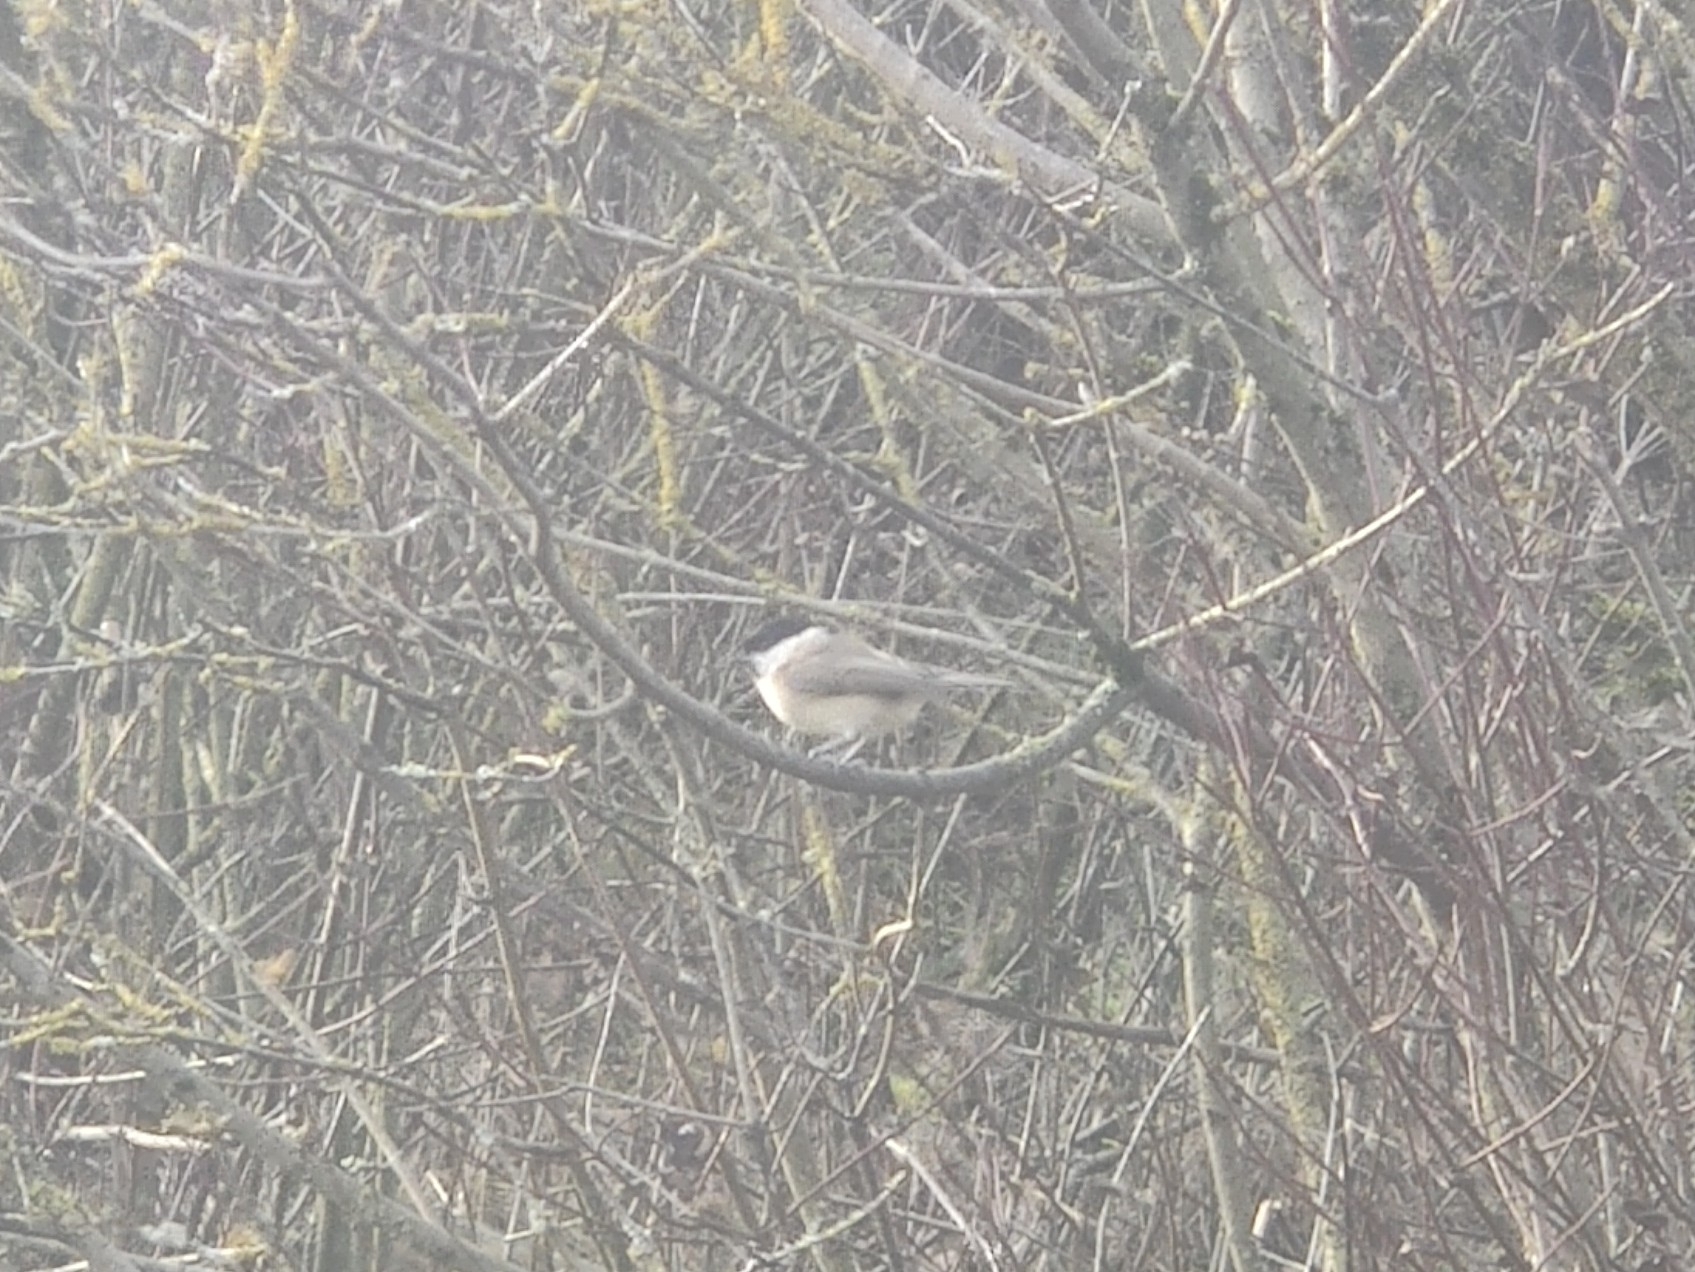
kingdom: Animalia
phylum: Chordata
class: Aves
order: Passeriformes
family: Paridae
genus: Poecile
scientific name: Poecile palustris
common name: Marsh tit
